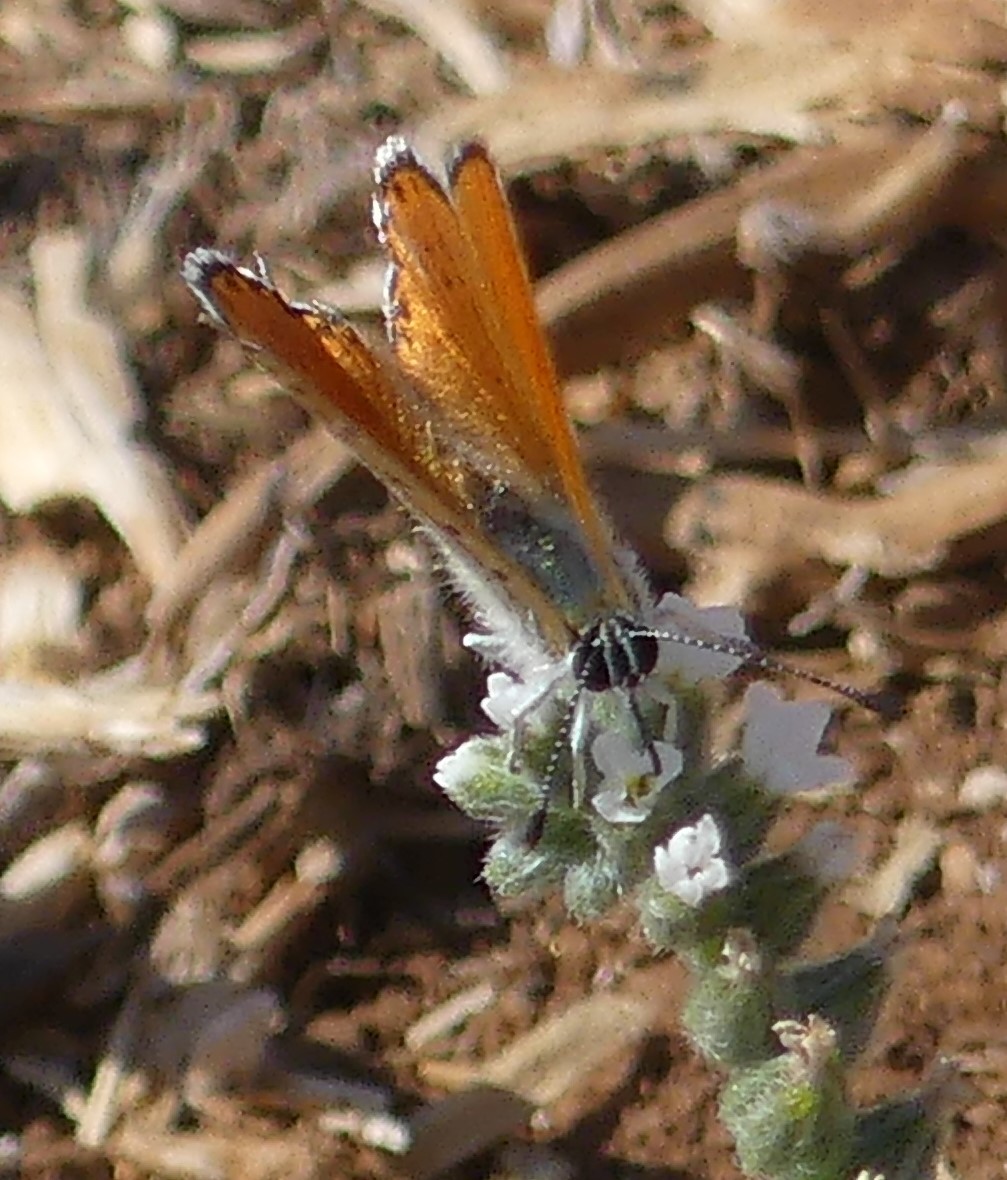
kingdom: Animalia
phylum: Arthropoda
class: Insecta
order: Lepidoptera
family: Lycaenidae
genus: Thersamonia
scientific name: Thersamonia thersamon
